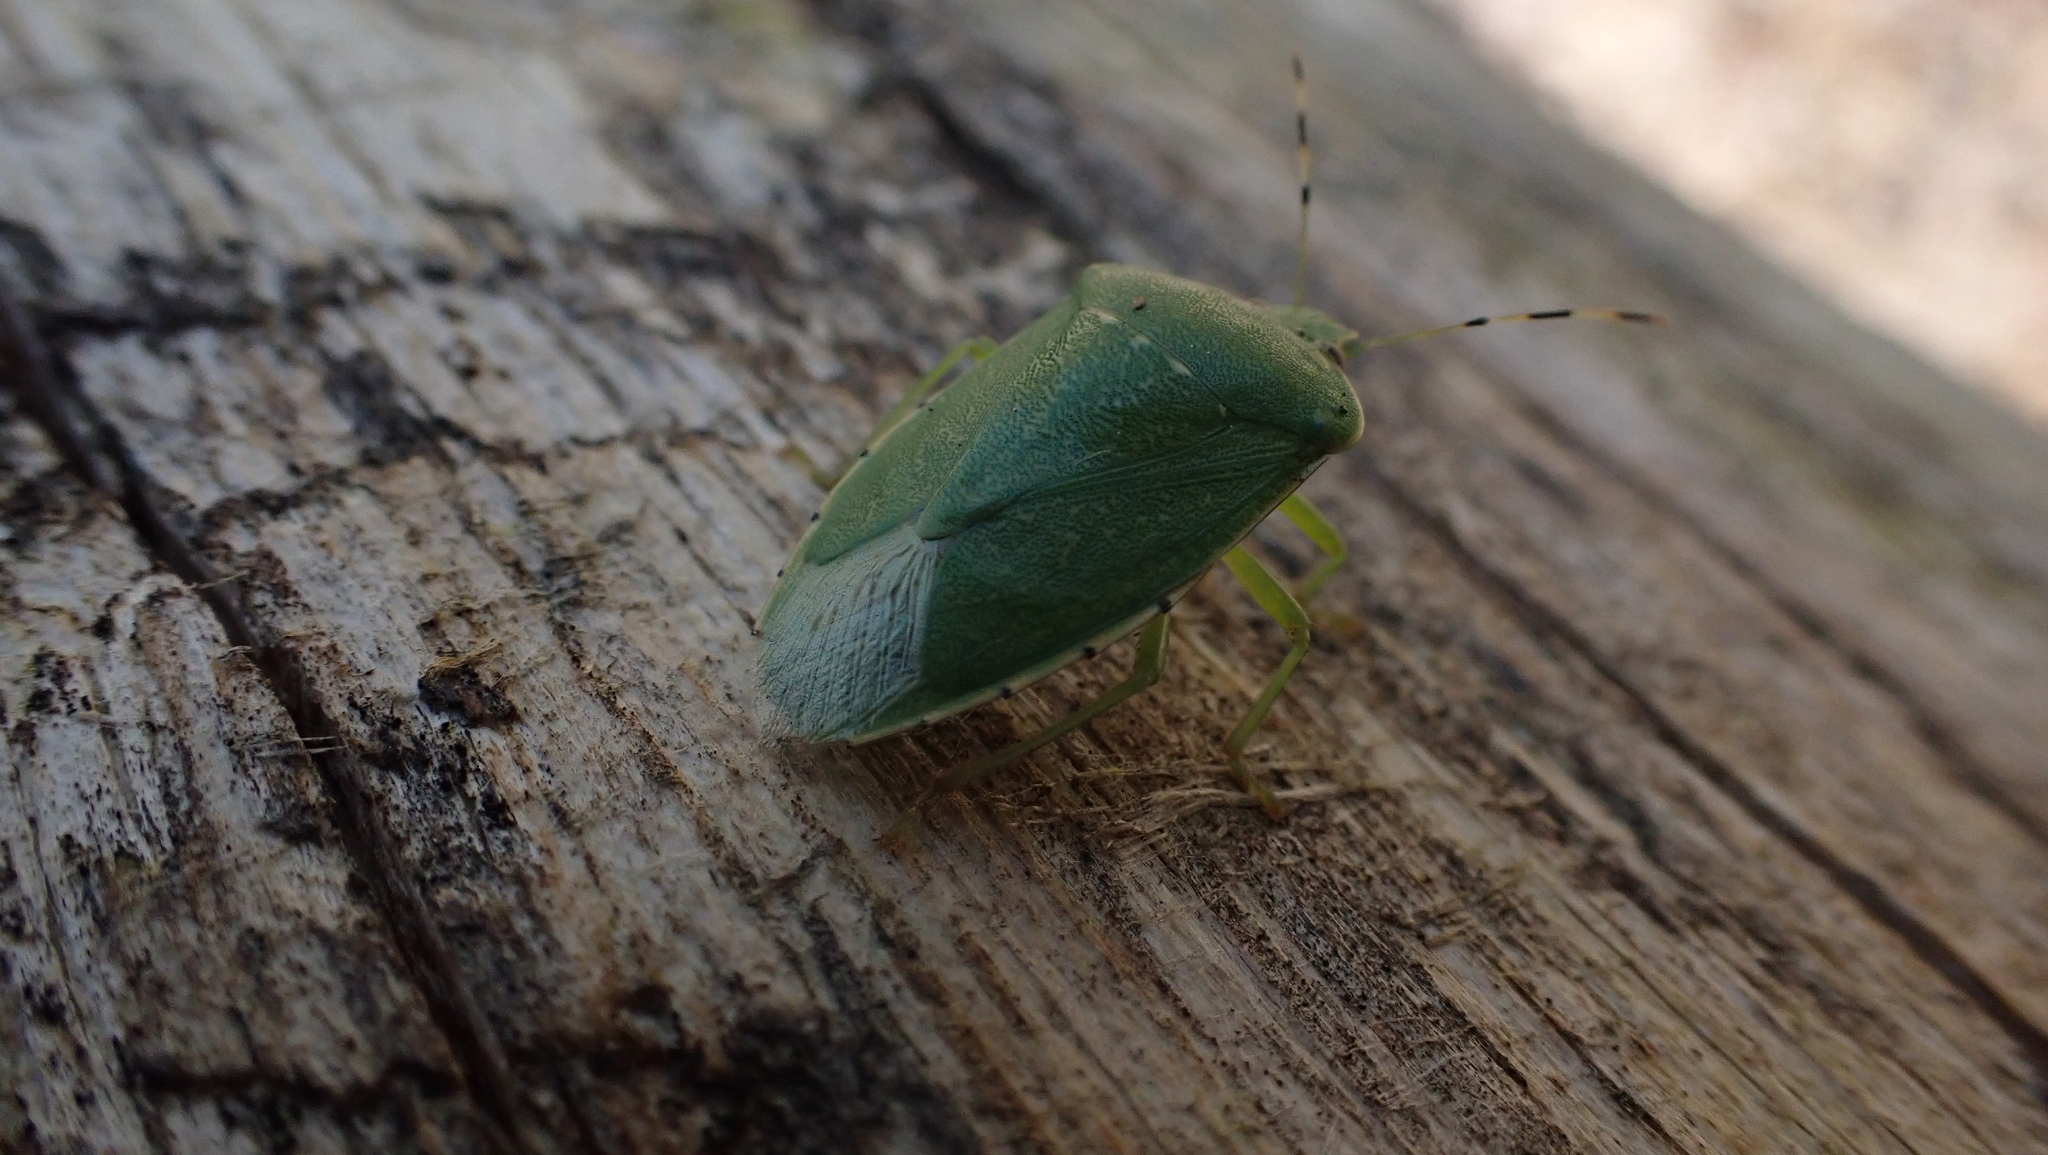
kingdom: Animalia
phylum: Arthropoda
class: Insecta
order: Hemiptera
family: Pentatomidae
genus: Chinavia
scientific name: Chinavia hilaris
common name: Green stink bug
